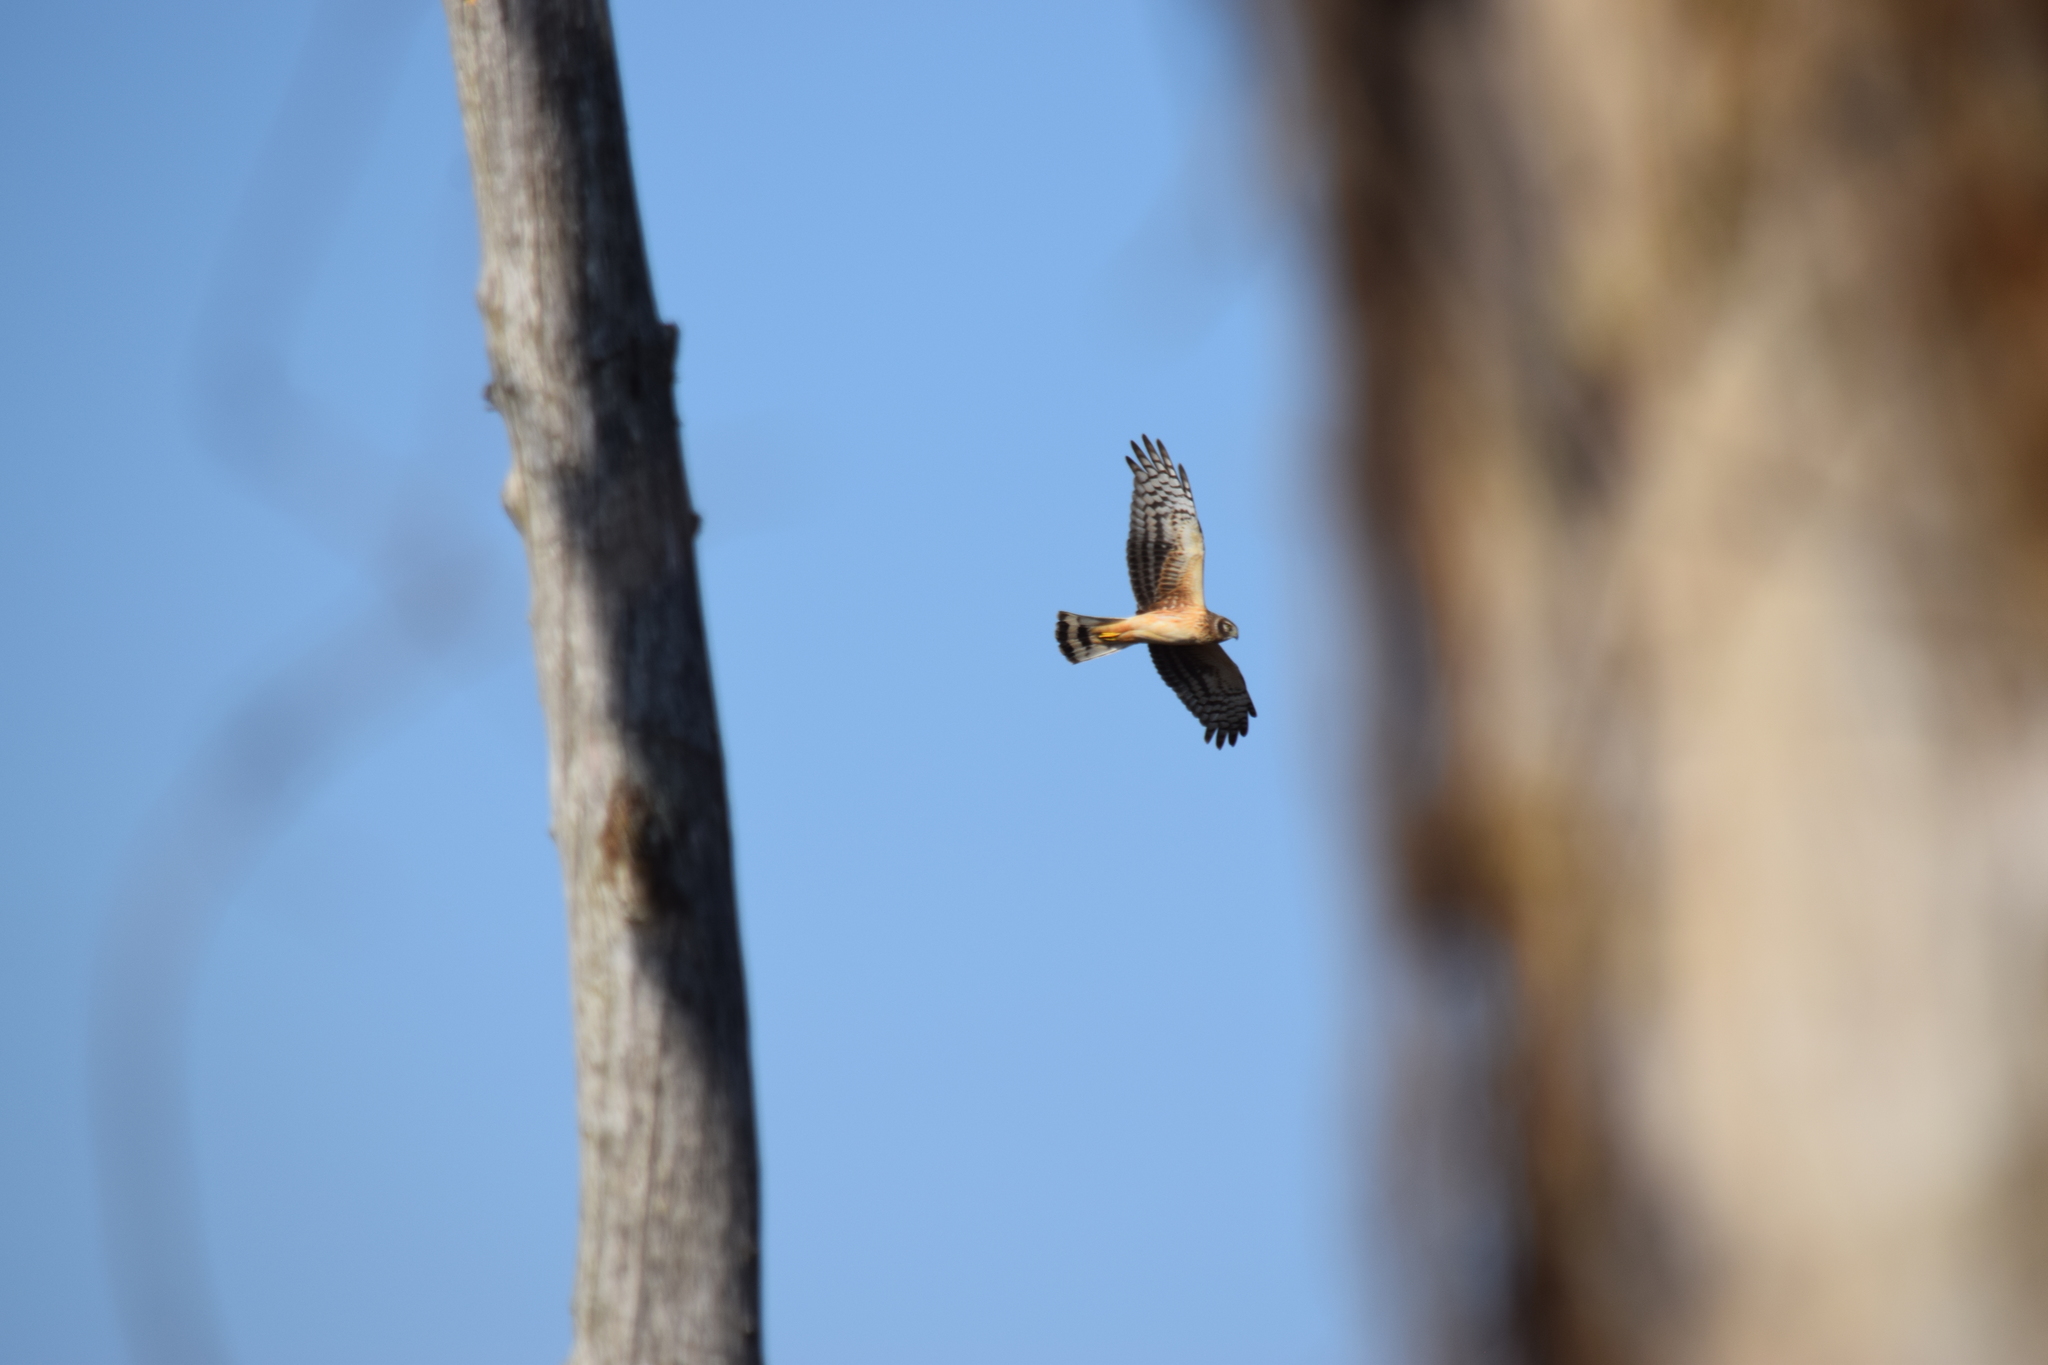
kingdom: Animalia
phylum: Chordata
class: Aves
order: Accipitriformes
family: Accipitridae
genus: Circus
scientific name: Circus cyaneus
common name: Hen harrier
